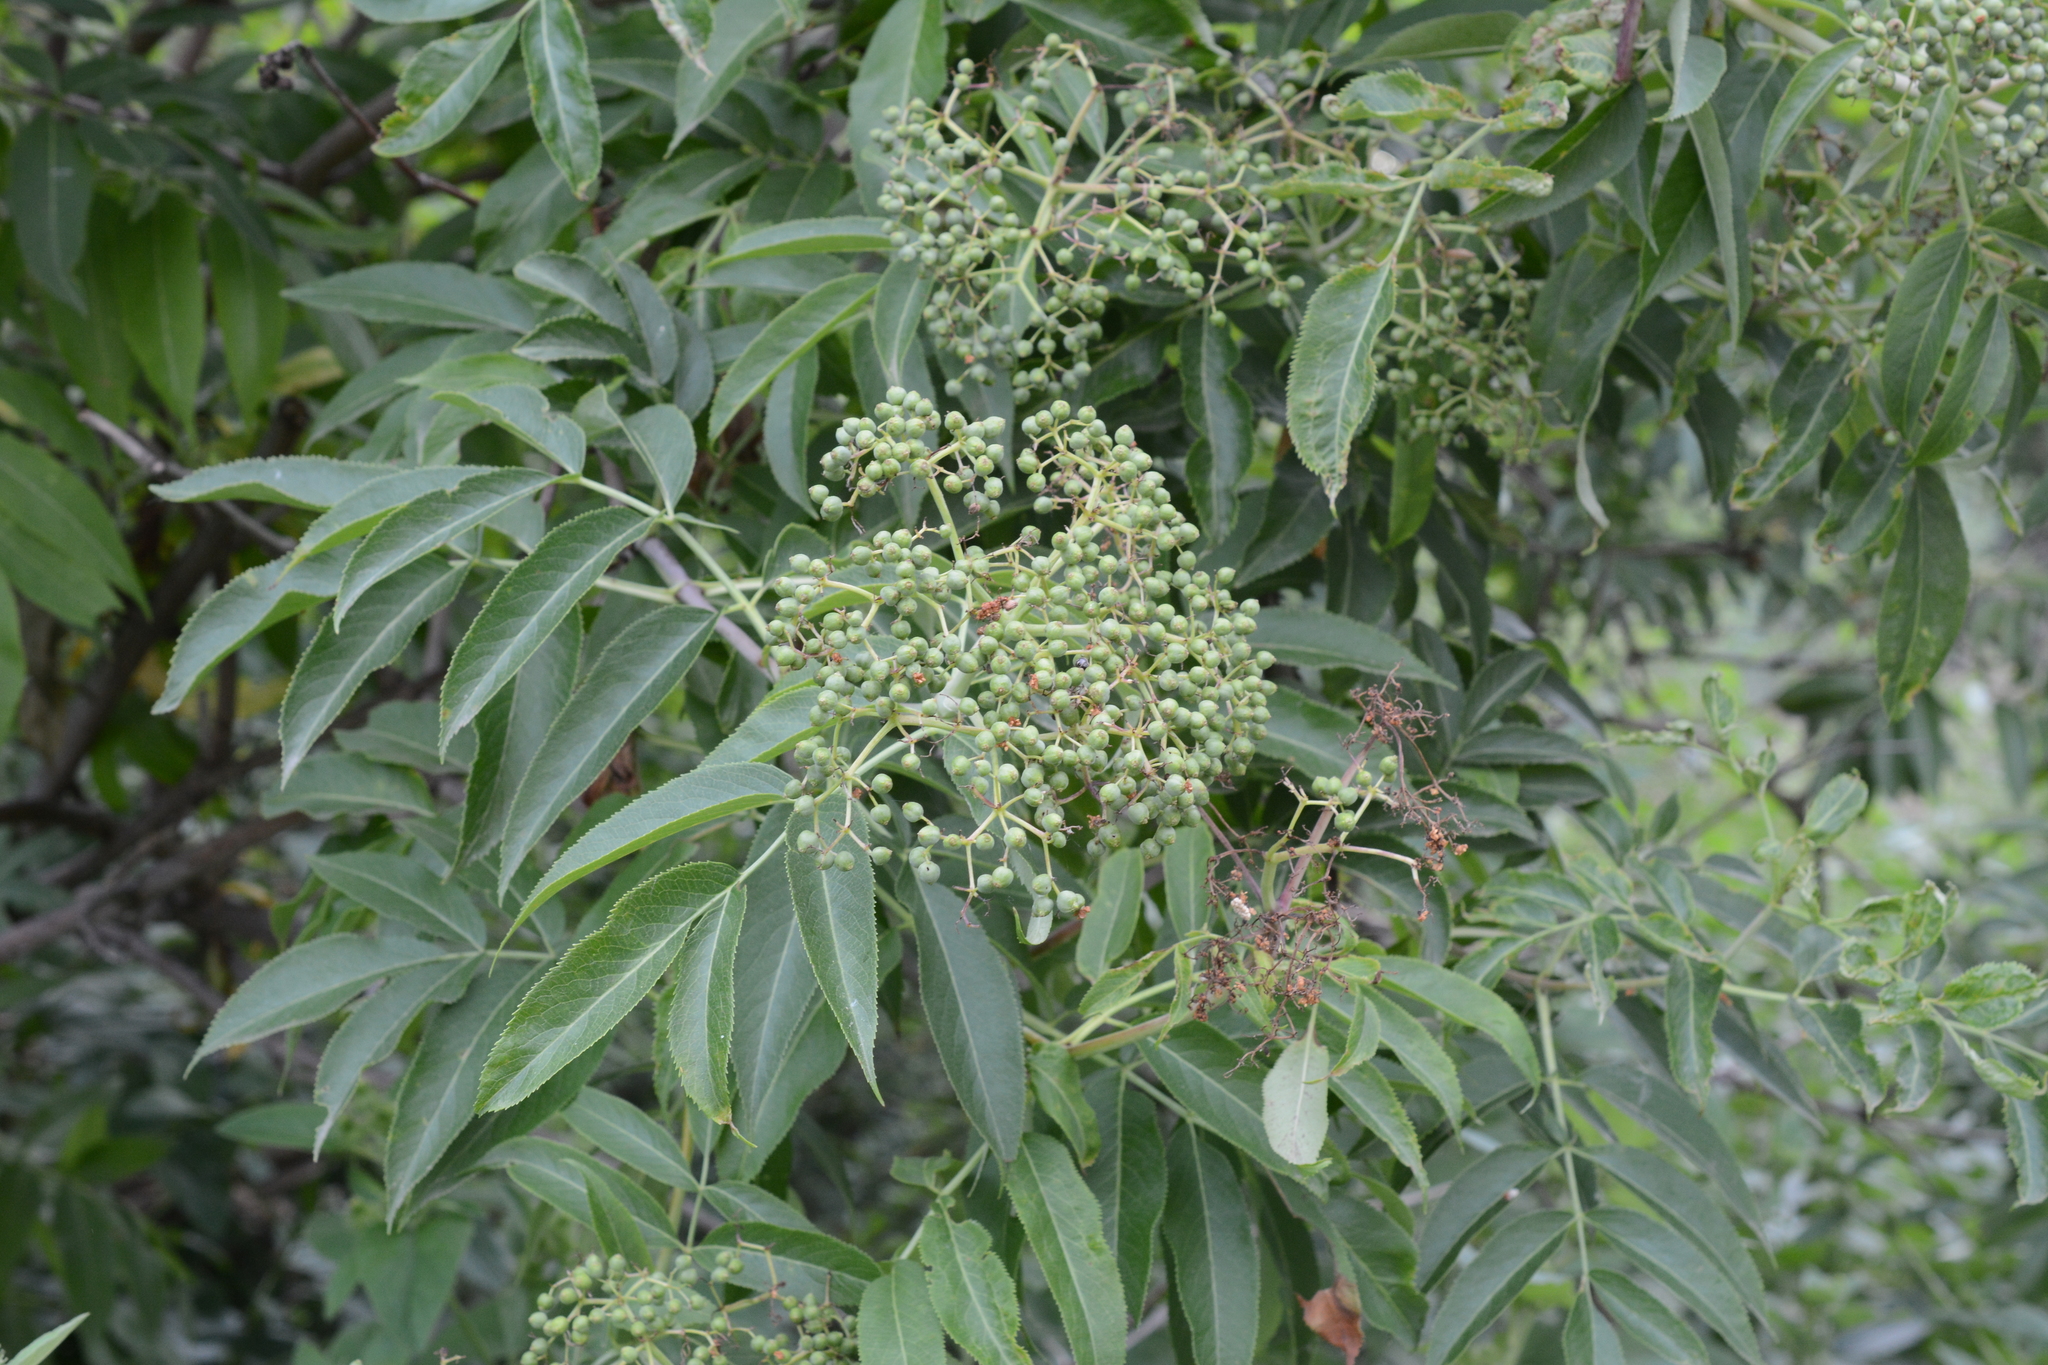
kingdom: Plantae
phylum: Tracheophyta
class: Magnoliopsida
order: Dipsacales
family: Viburnaceae
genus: Sambucus
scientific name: Sambucus cerulea
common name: Blue elder
